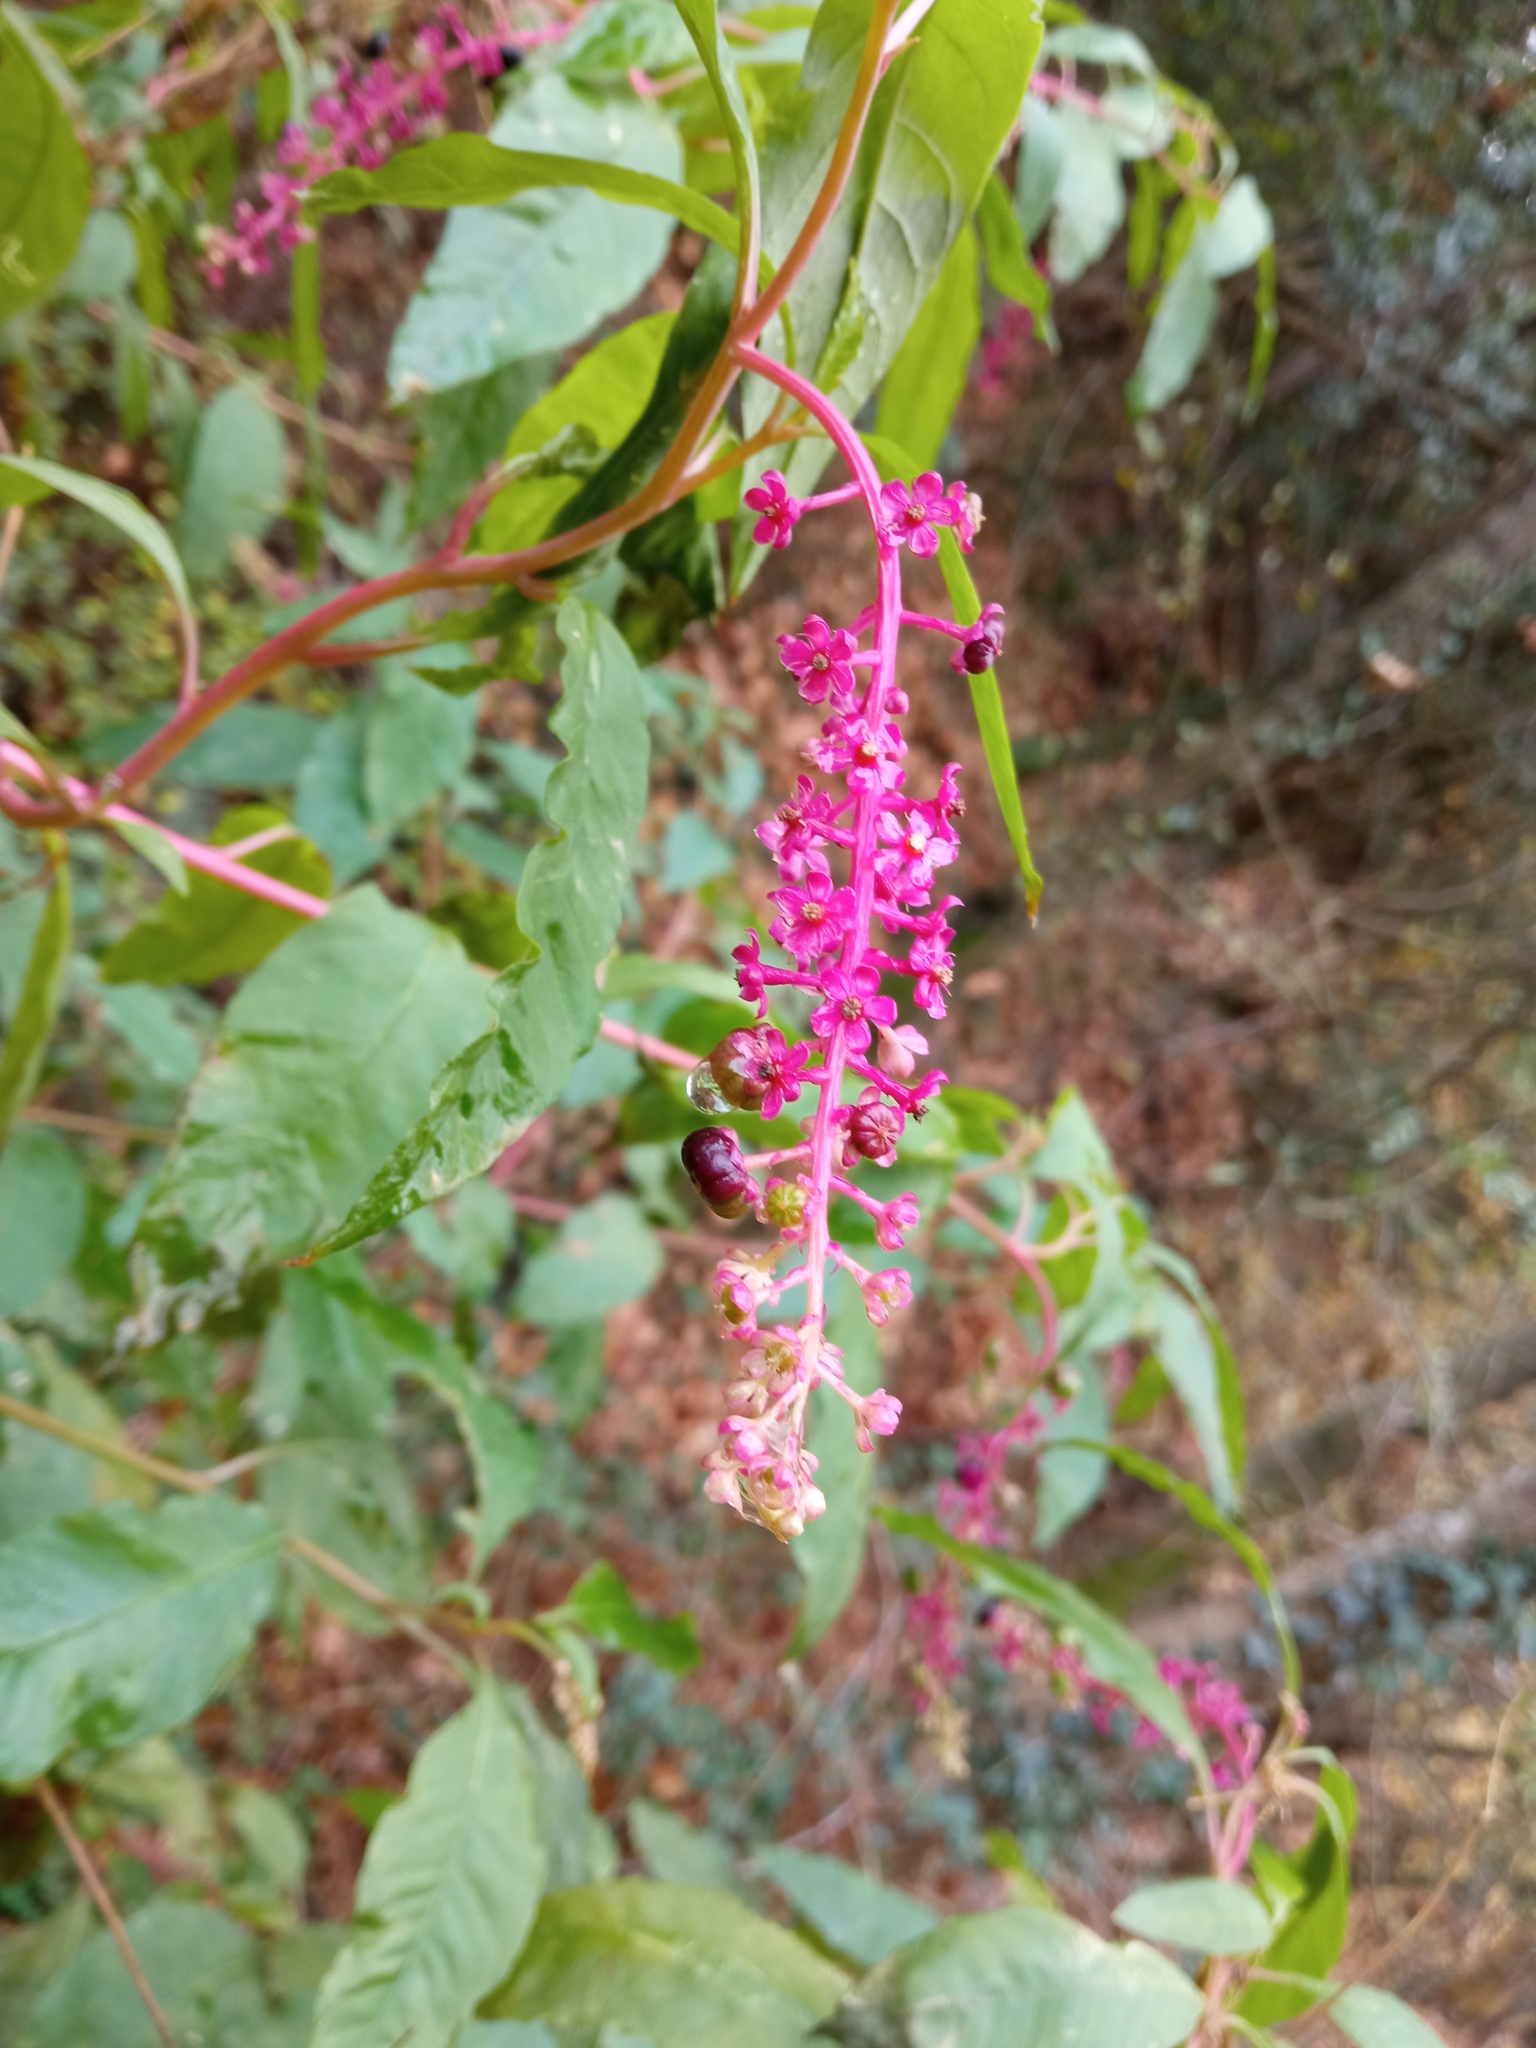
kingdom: Plantae
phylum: Tracheophyta
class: Magnoliopsida
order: Caryophyllales
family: Phytolaccaceae
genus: Phytolacca
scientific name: Phytolacca americana
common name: American pokeweed
